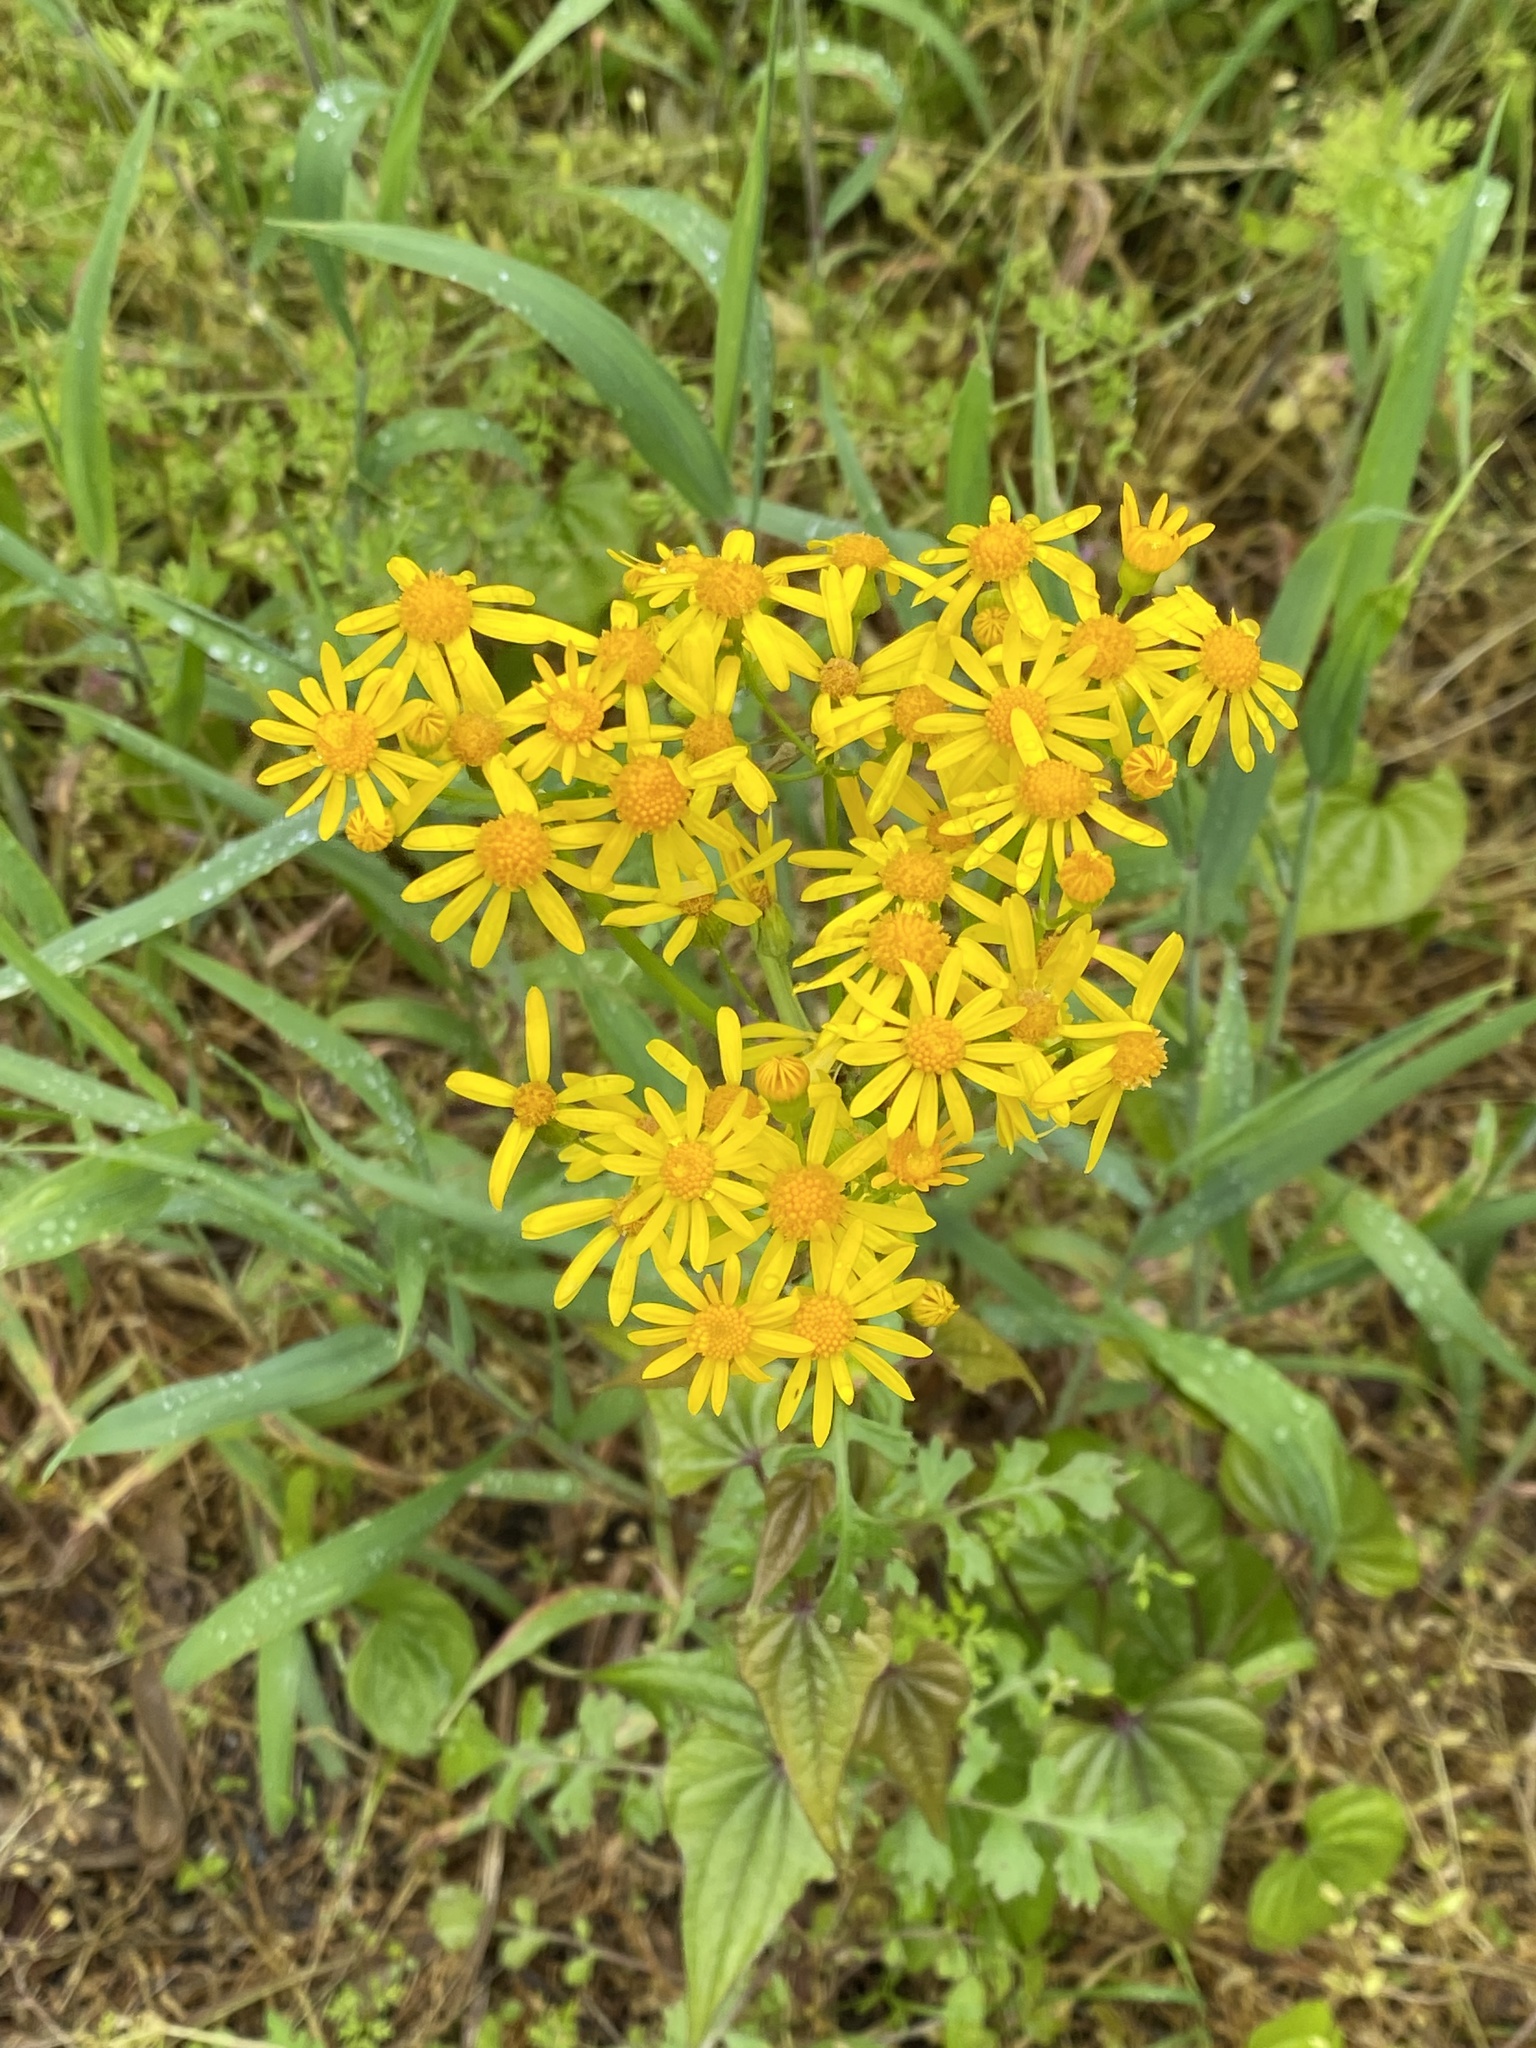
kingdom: Plantae
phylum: Tracheophyta
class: Magnoliopsida
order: Asterales
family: Asteraceae
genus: Packera
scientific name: Packera glabella
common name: Butterweed
